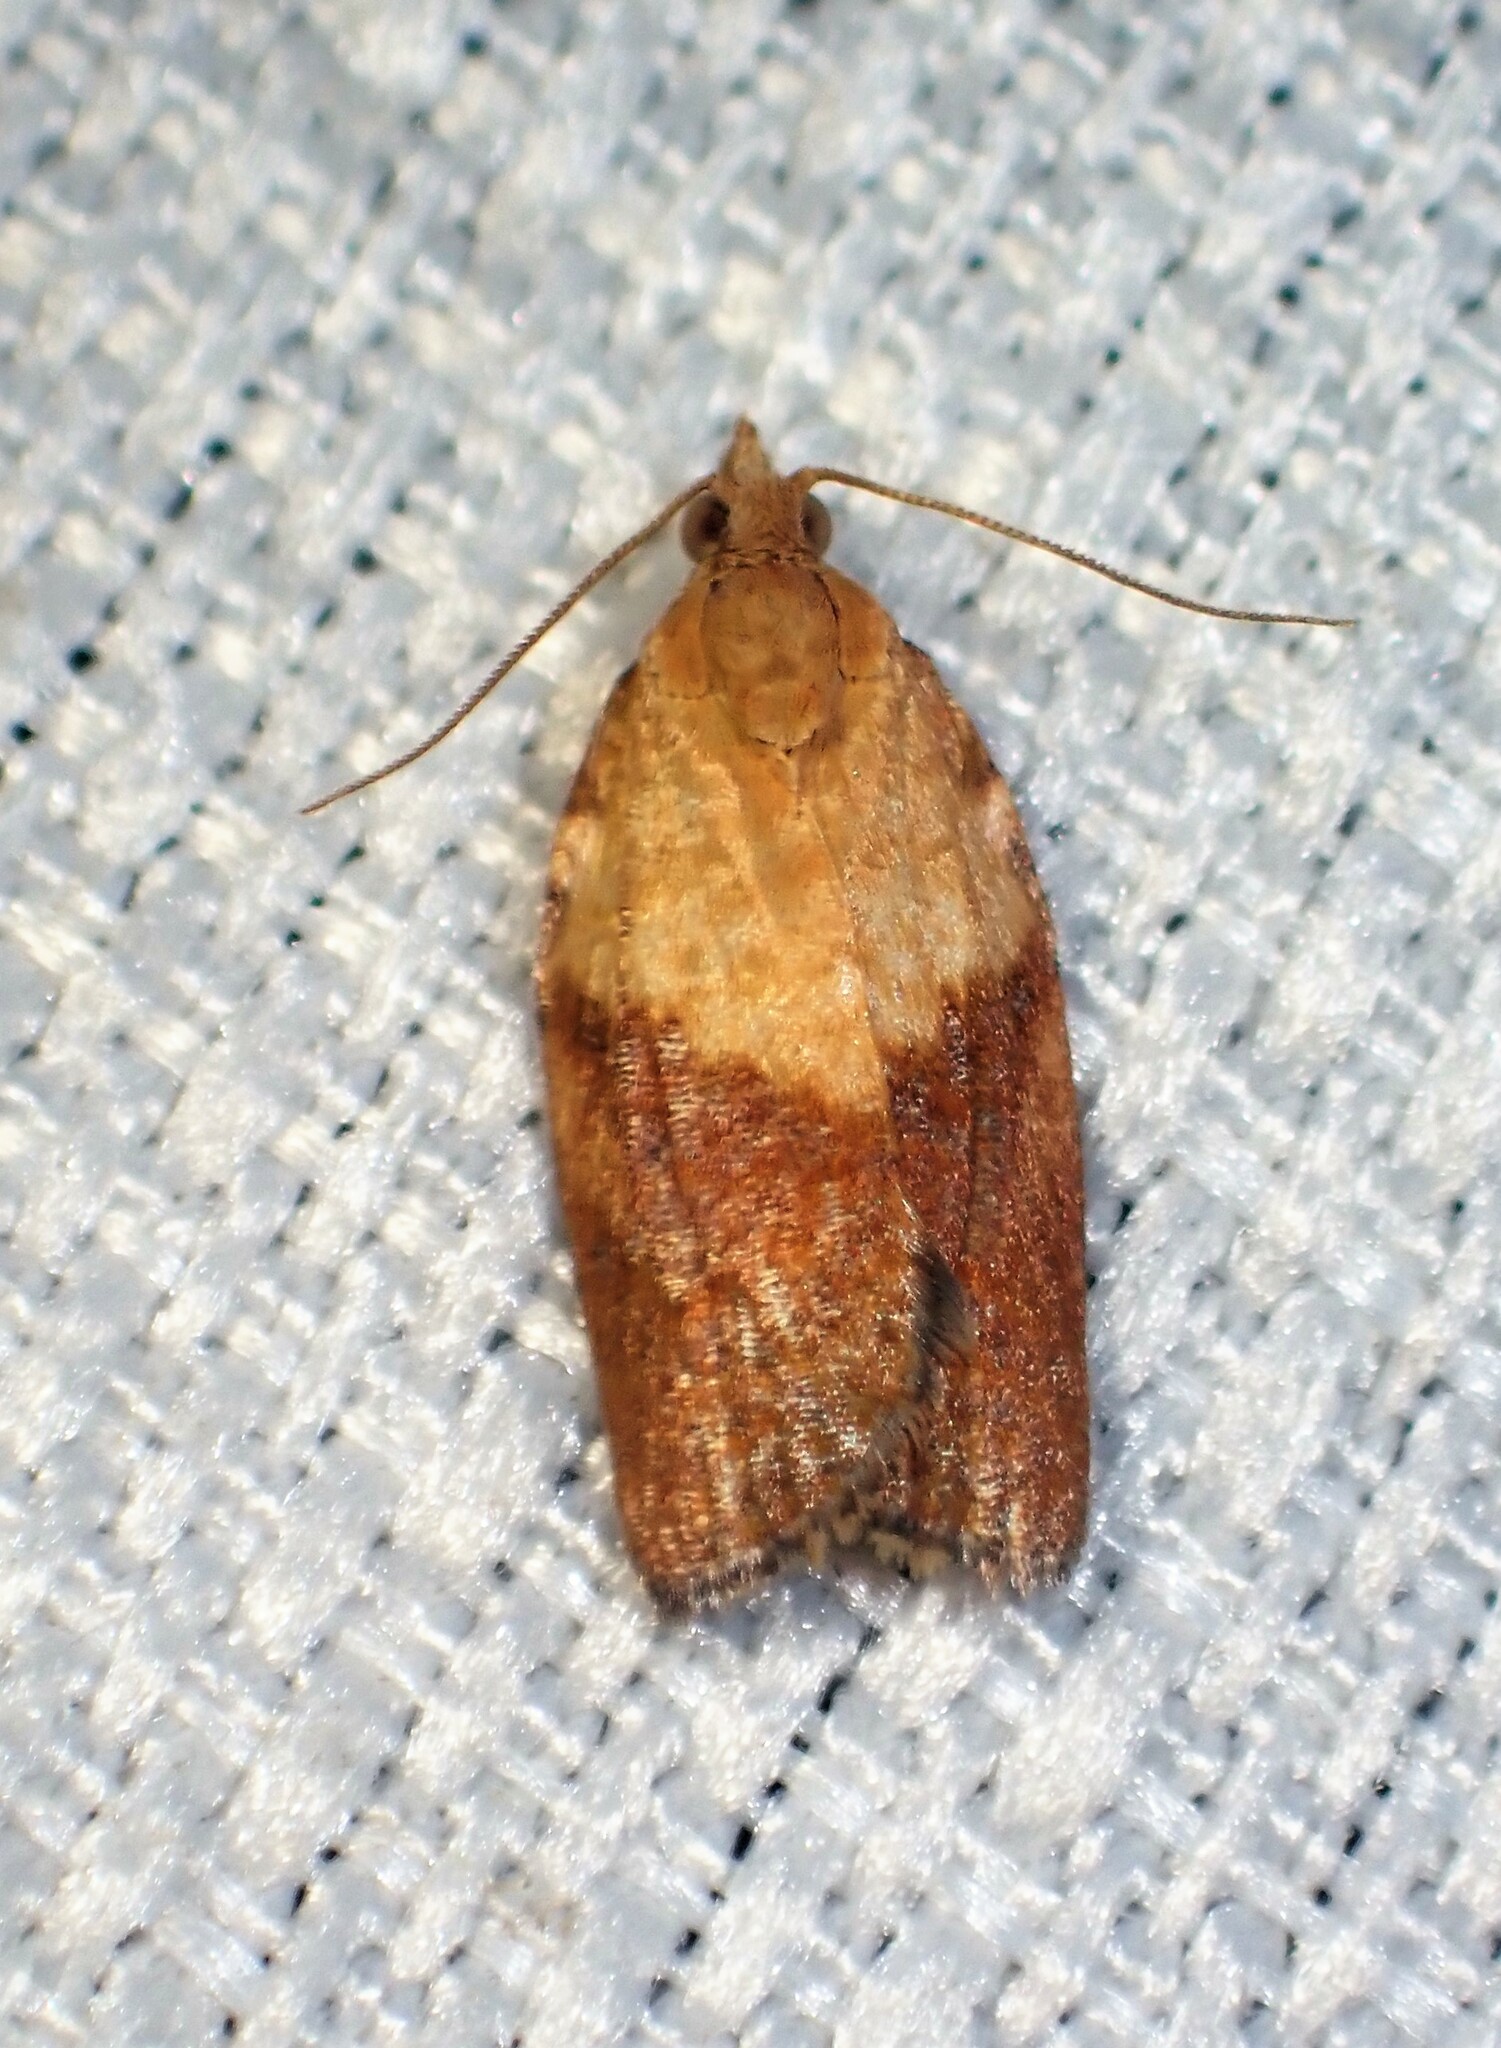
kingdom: Animalia
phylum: Arthropoda
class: Insecta
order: Lepidoptera
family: Tortricidae
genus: Epiphyas
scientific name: Epiphyas postvittana
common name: Light brown apple moth
